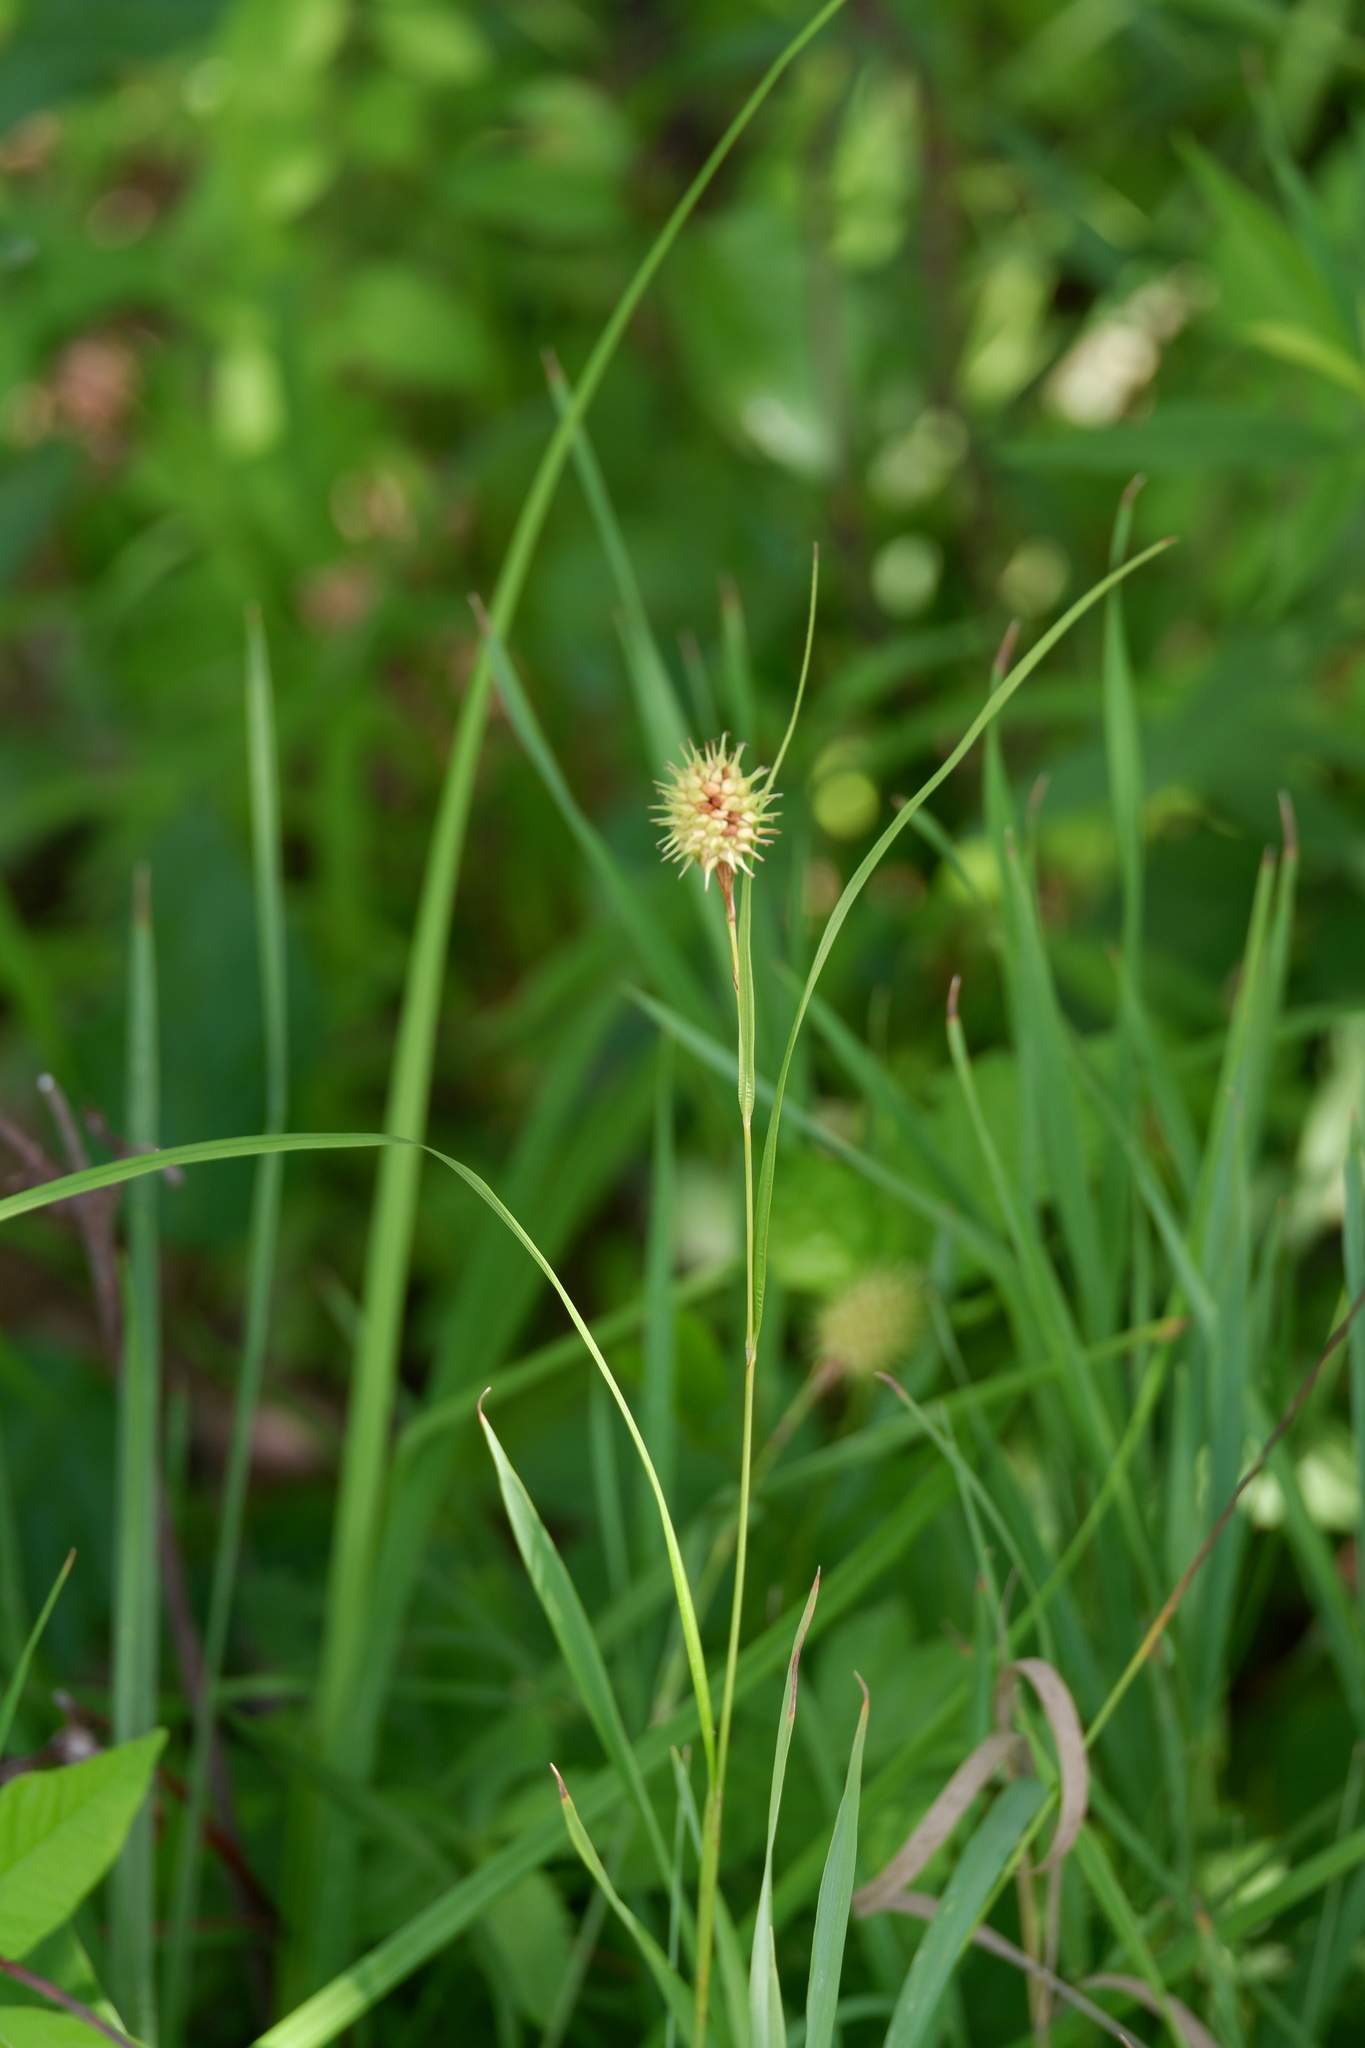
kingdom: Plantae
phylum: Tracheophyta
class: Liliopsida
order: Poales
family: Cyperaceae
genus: Carex
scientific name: Carex squarrosa
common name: Narrow-leaved cattail sedge
